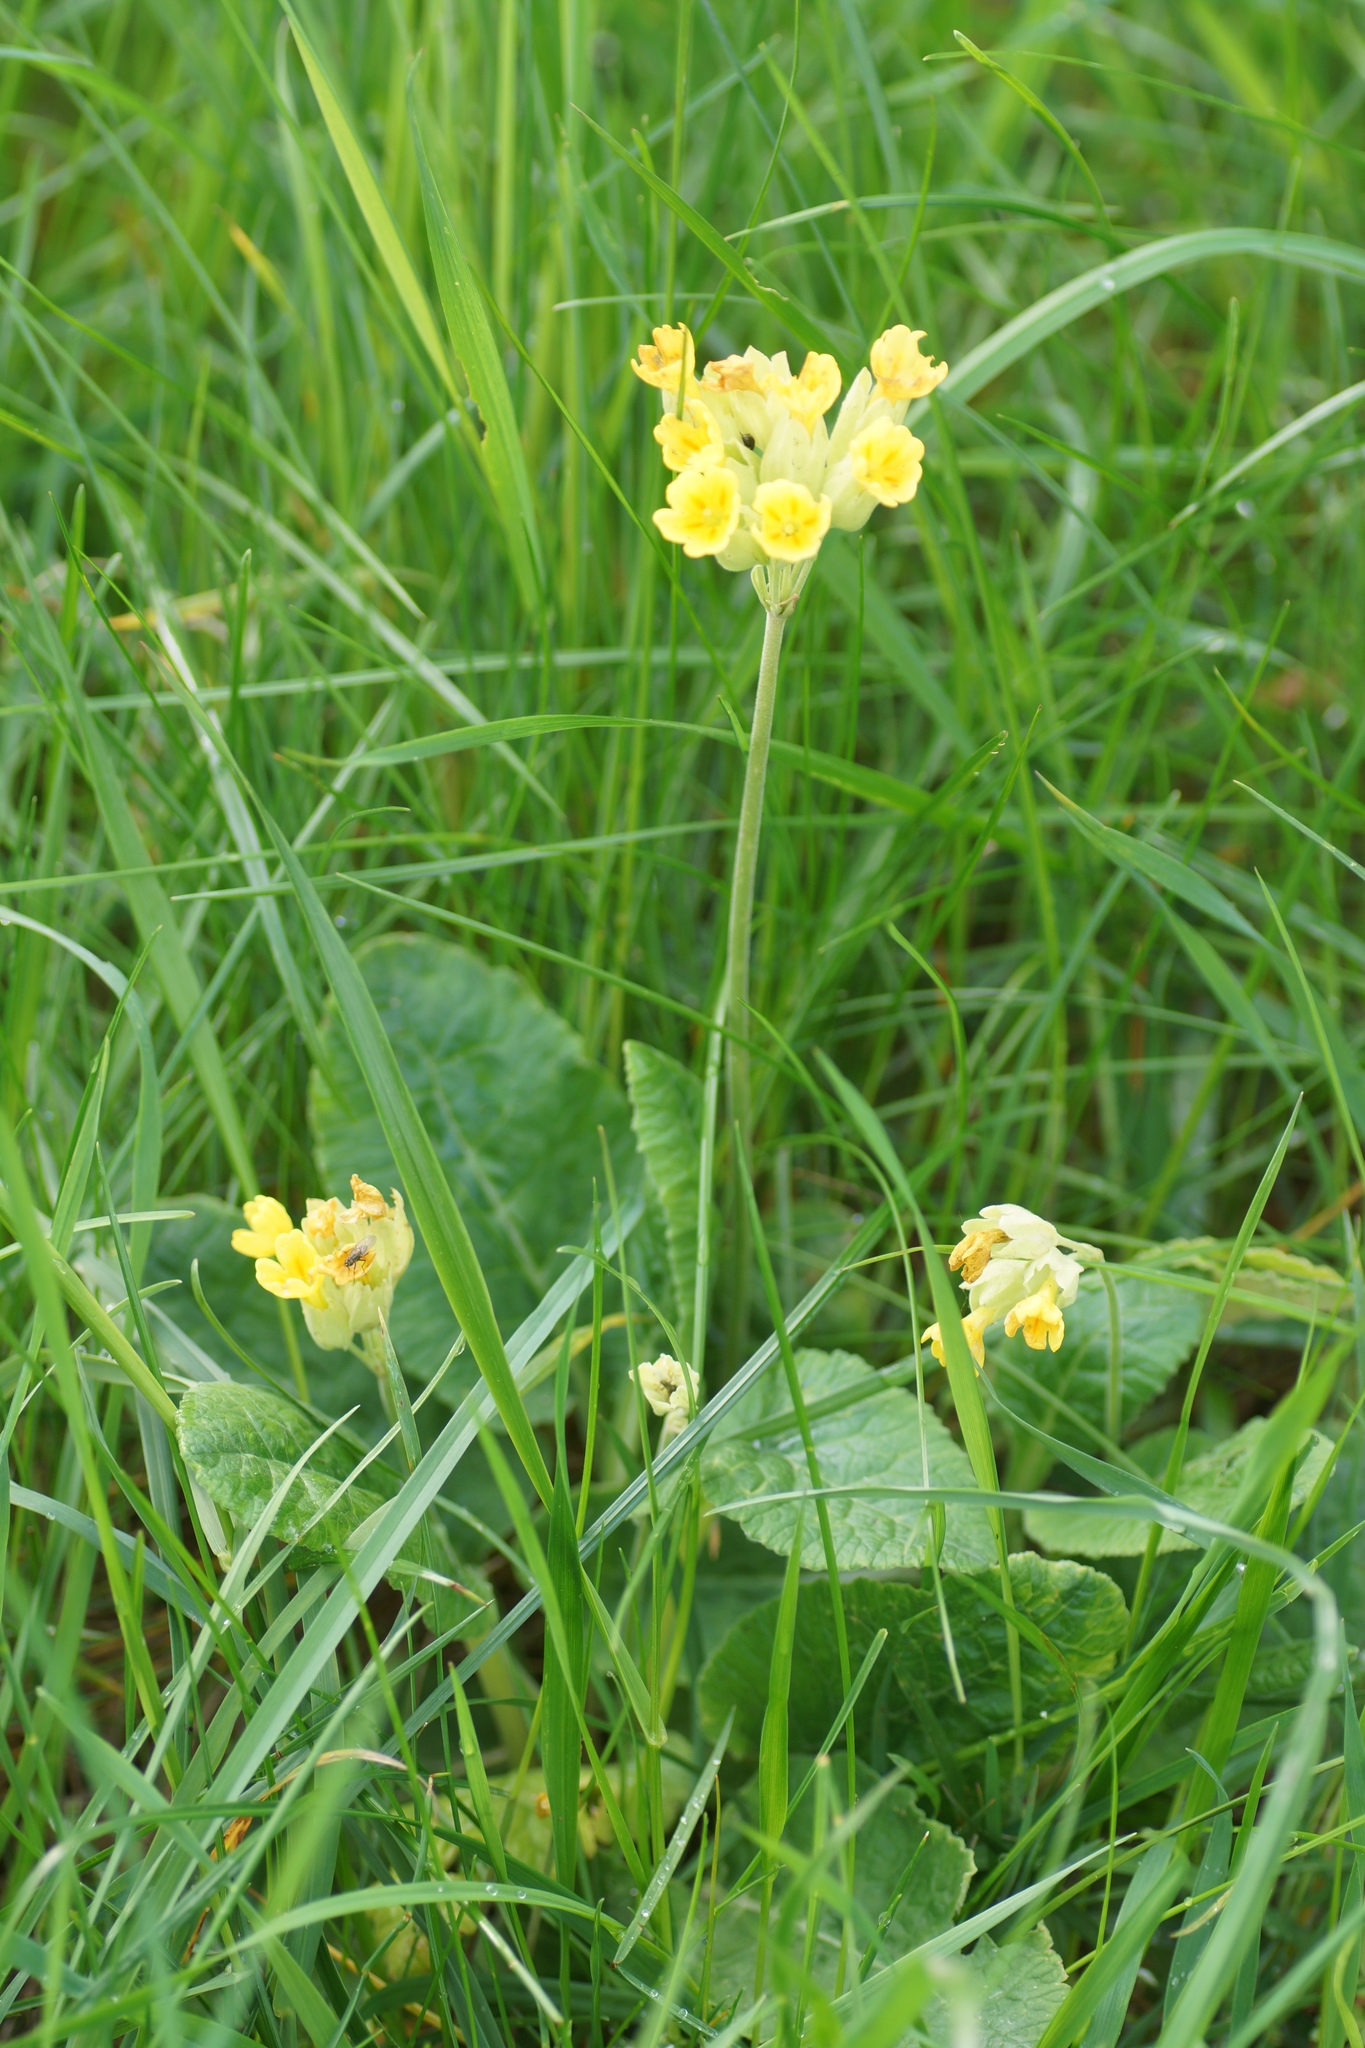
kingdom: Plantae
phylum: Tracheophyta
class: Magnoliopsida
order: Ericales
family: Primulaceae
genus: Primula
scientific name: Primula veris
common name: Cowslip
